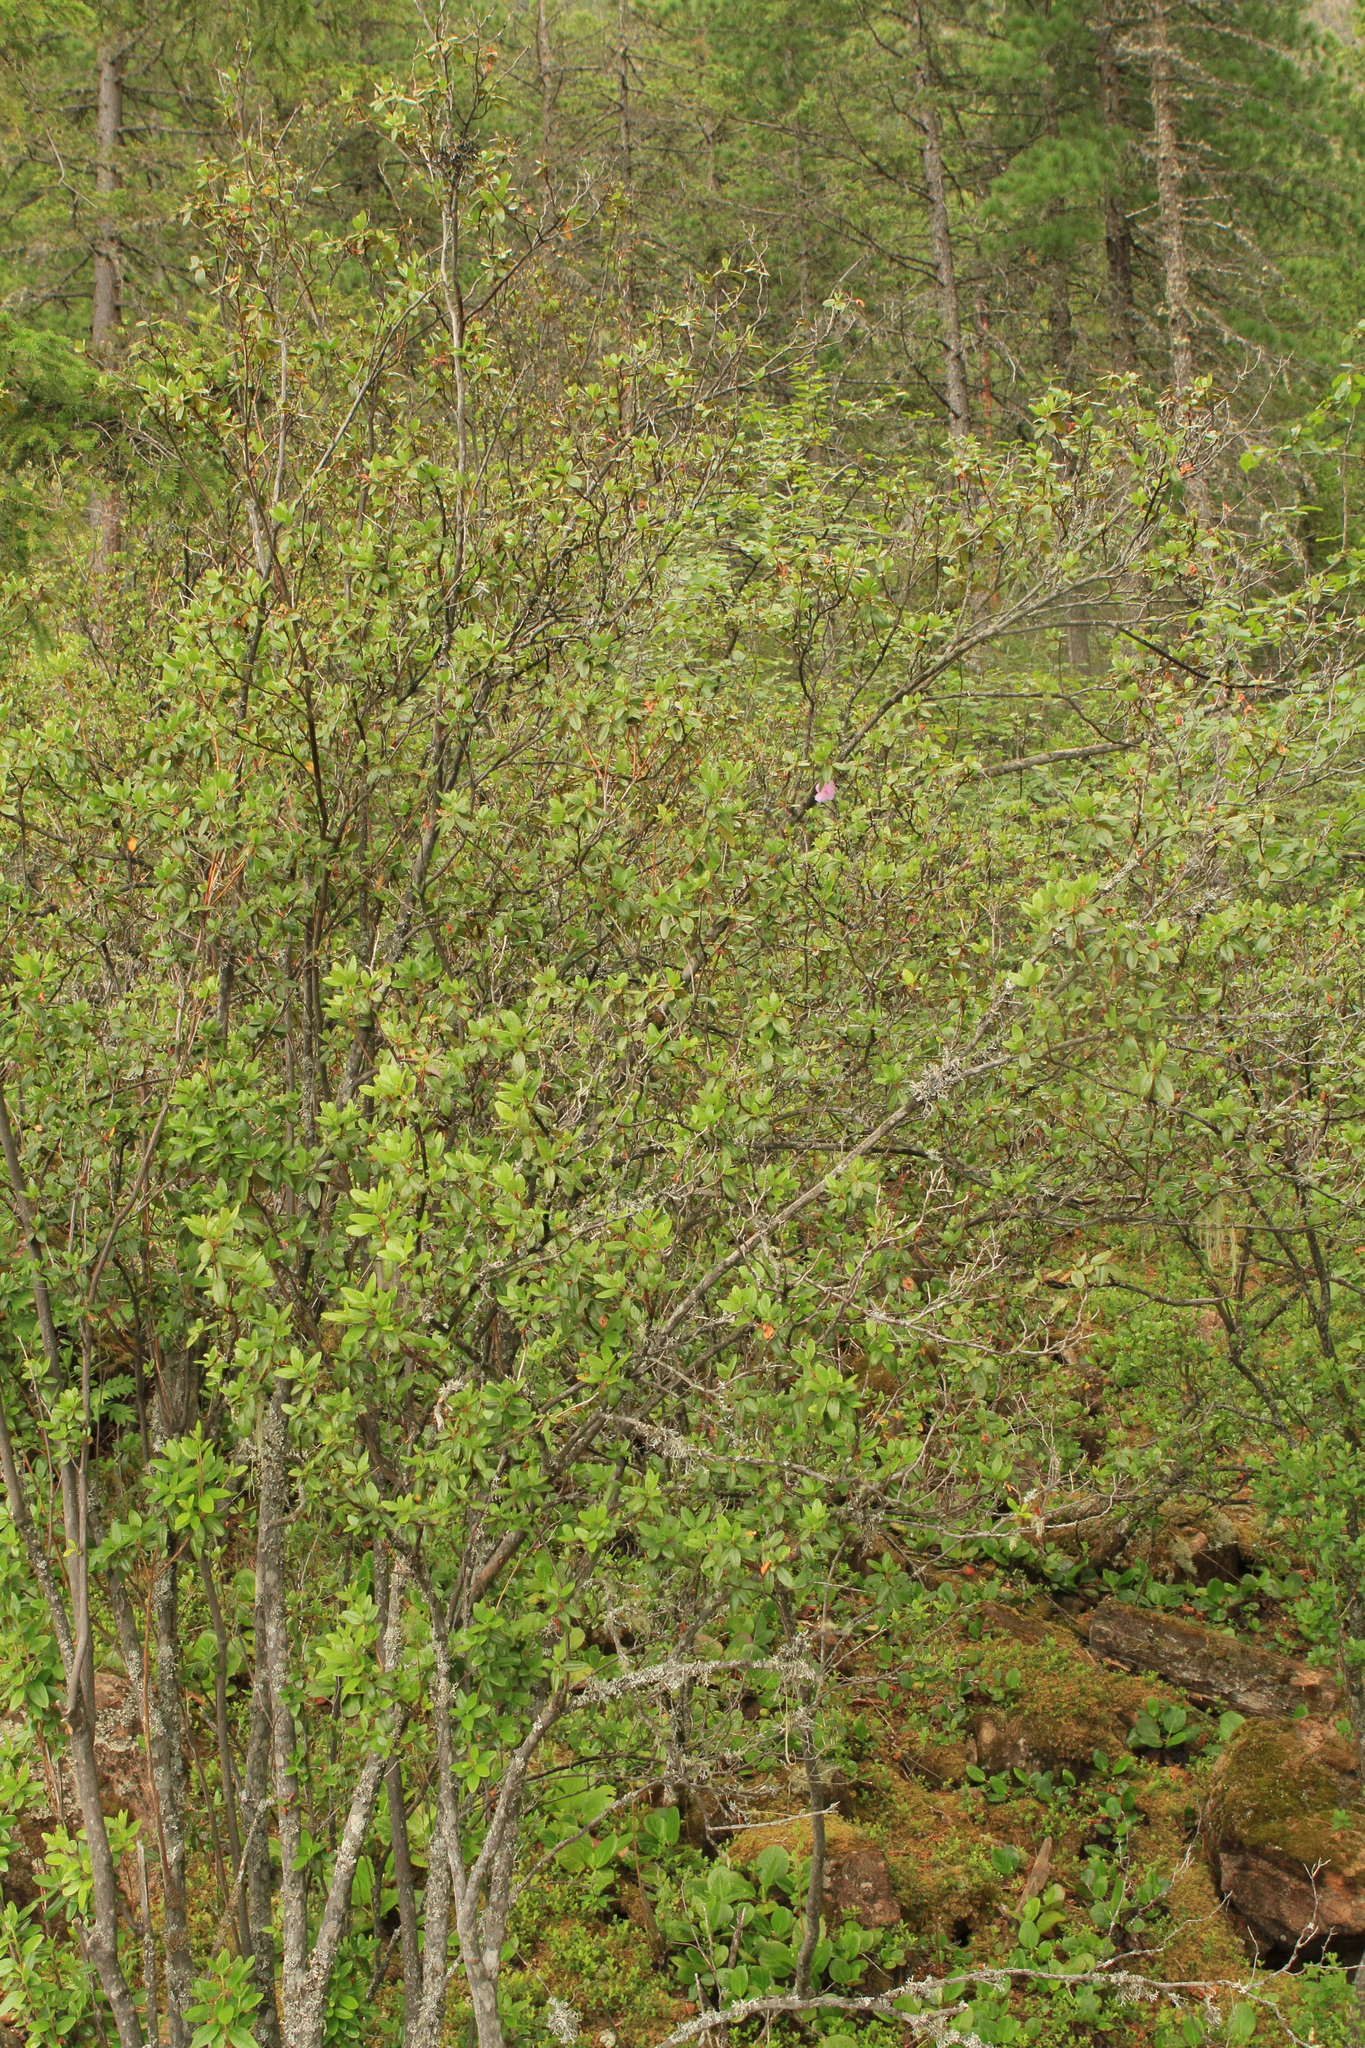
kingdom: Plantae
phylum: Tracheophyta
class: Magnoliopsida
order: Ericales
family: Ericaceae
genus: Rhododendron
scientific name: Rhododendron dauricum
